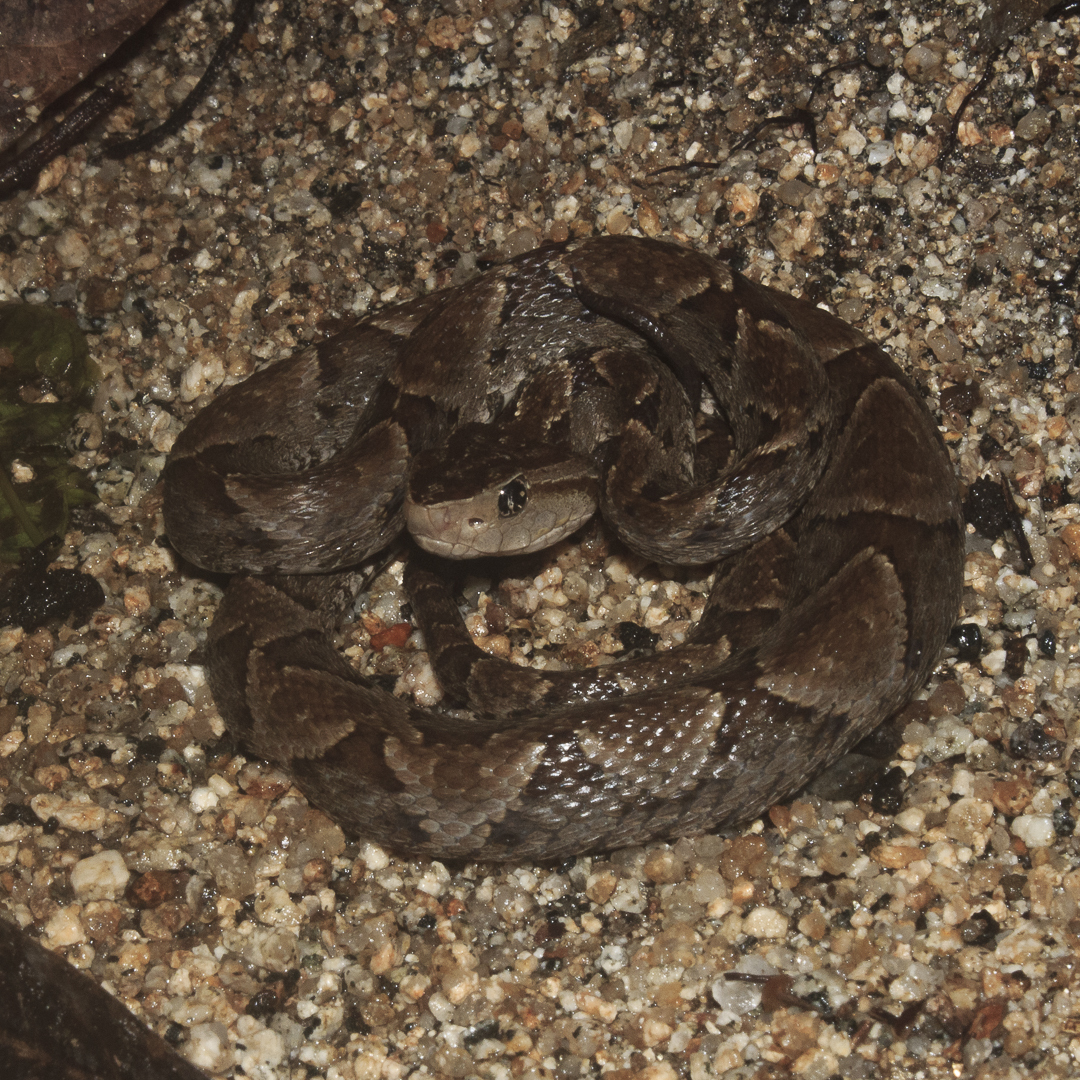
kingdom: Animalia
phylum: Chordata
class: Squamata
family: Viperidae
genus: Bothrops
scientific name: Bothrops asper
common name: Terciopelo
